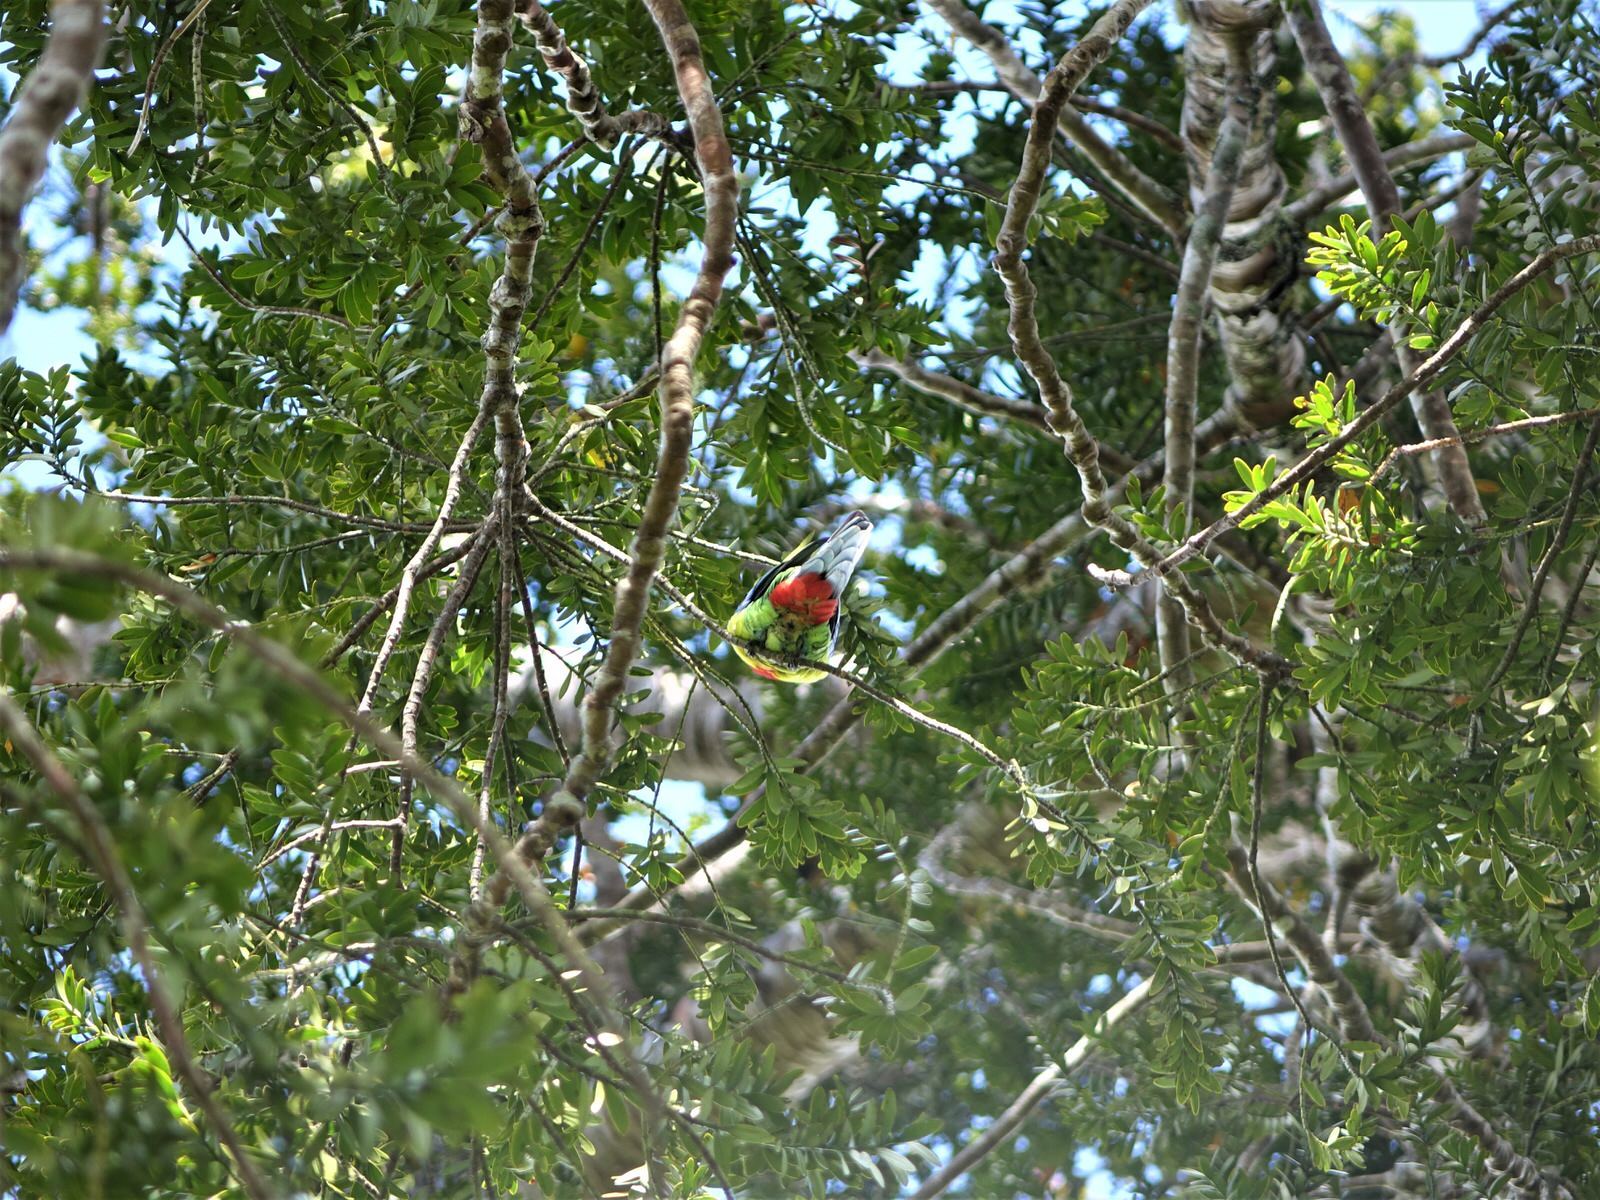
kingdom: Animalia
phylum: Chordata
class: Aves
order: Psittaciformes
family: Psittacidae
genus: Platycercus
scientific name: Platycercus eximius
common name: Eastern rosella
